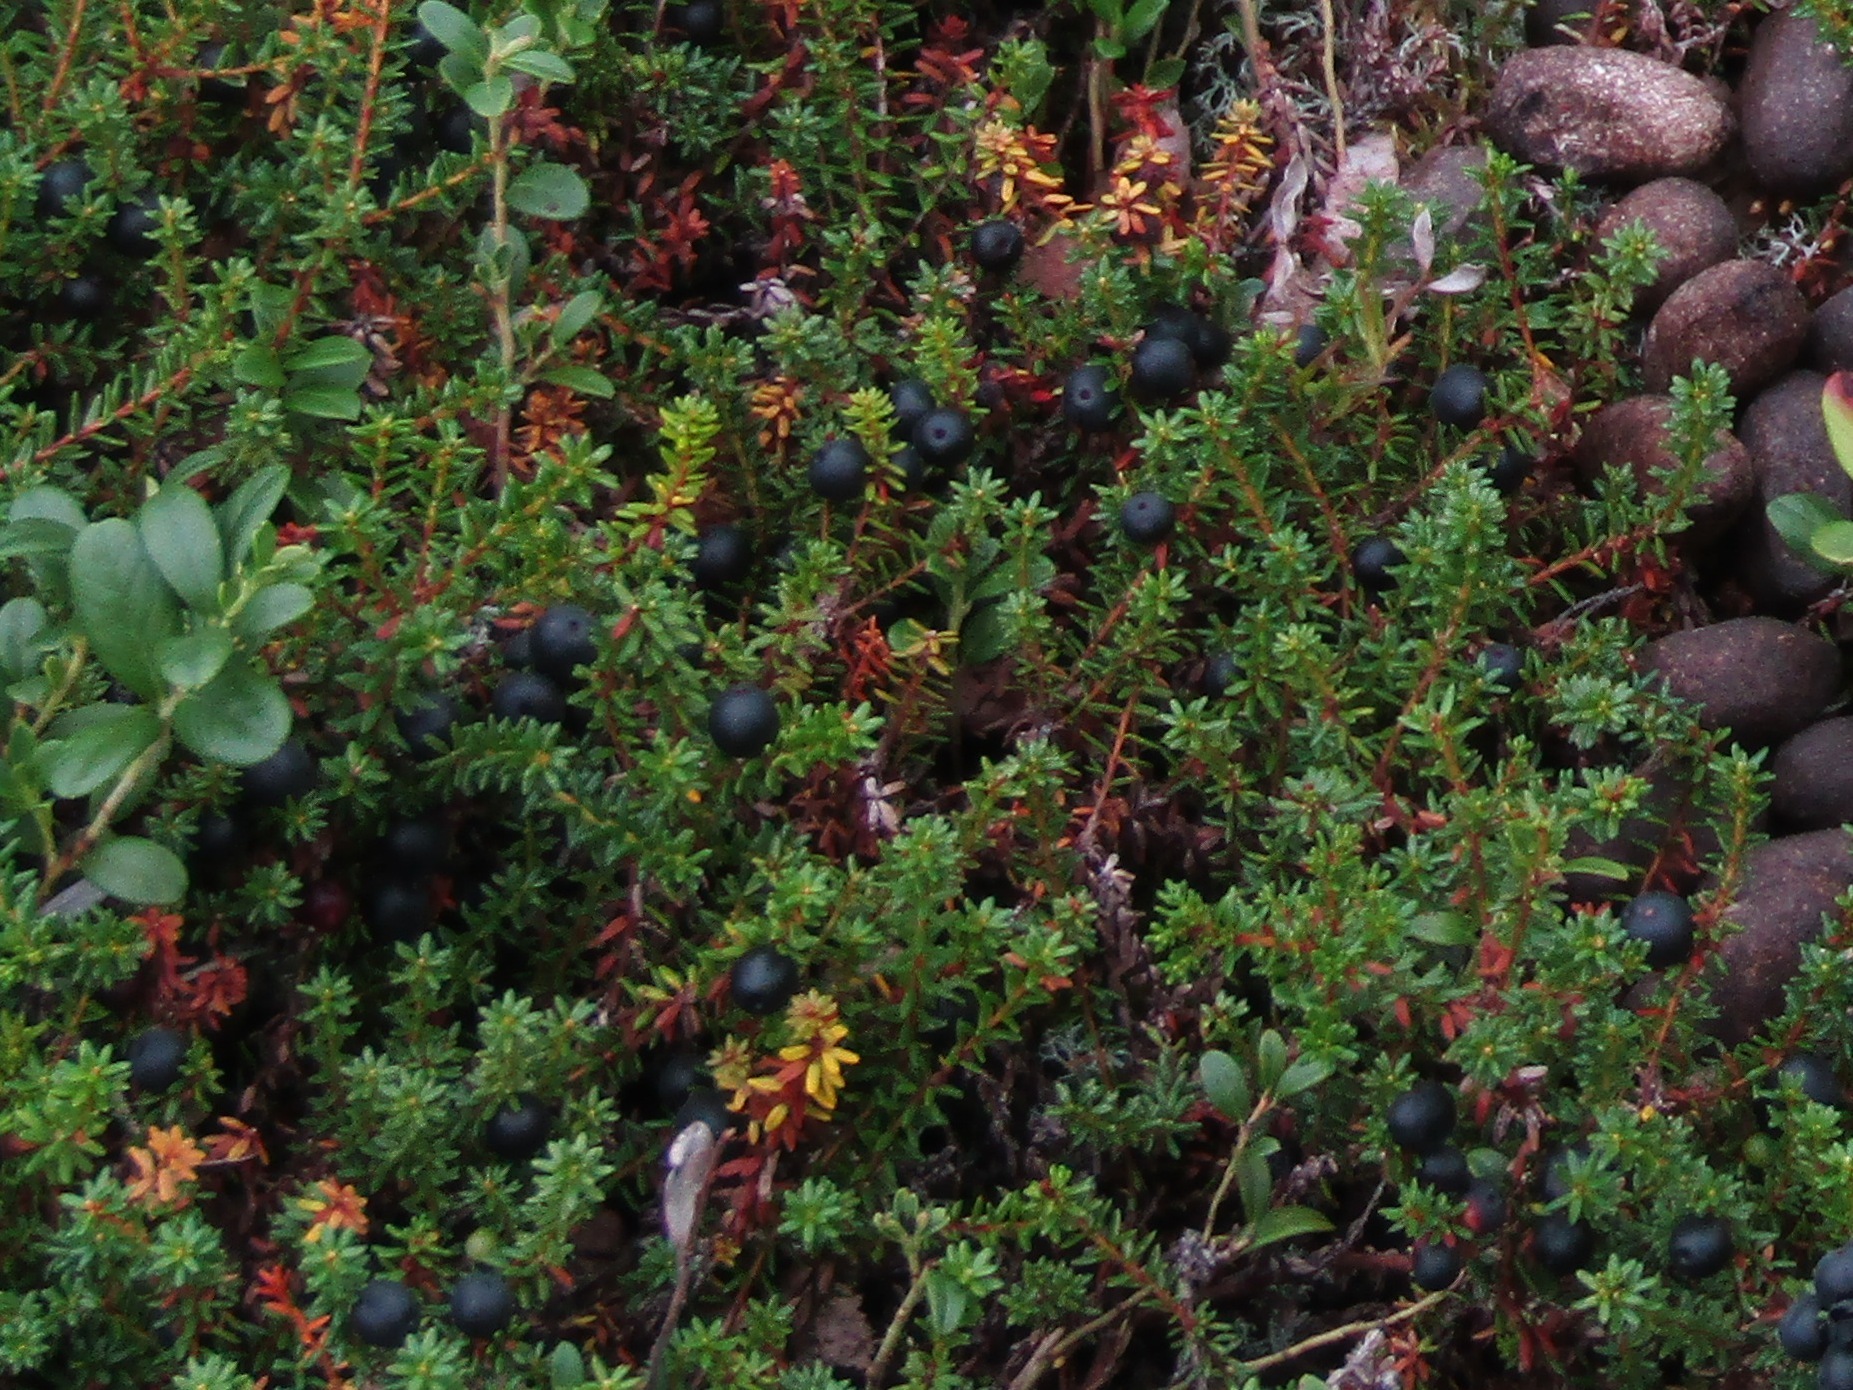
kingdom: Plantae
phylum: Tracheophyta
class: Magnoliopsida
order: Ericales
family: Ericaceae
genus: Empetrum
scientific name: Empetrum nigrum
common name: Black crowberry
